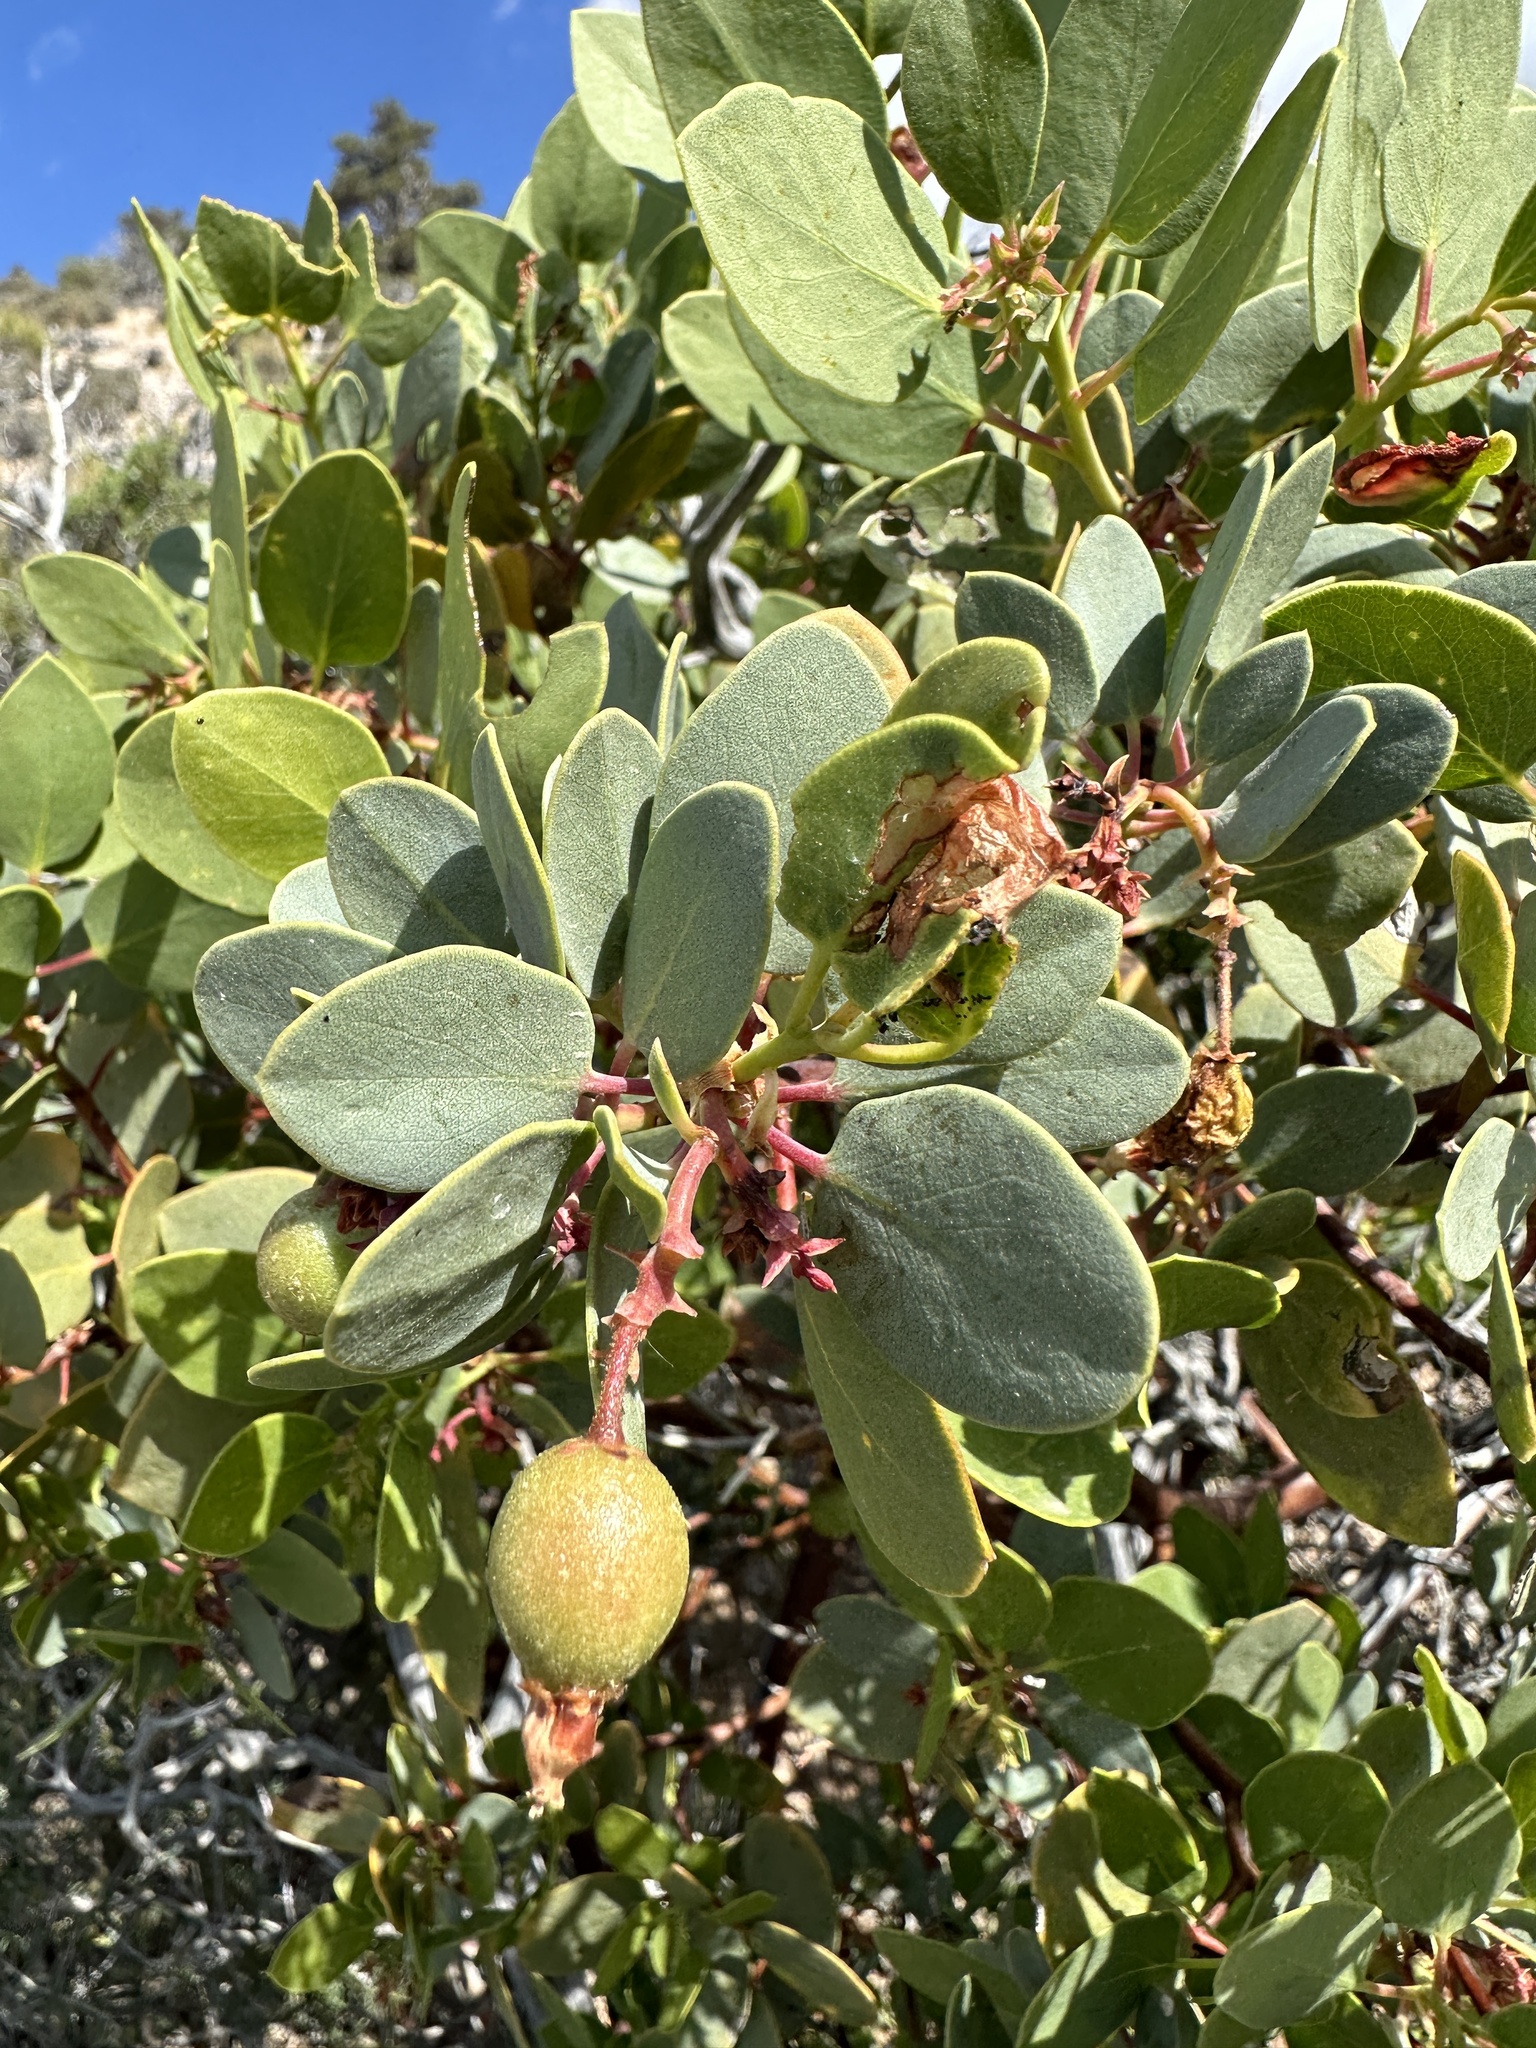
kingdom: Plantae
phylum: Tracheophyta
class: Magnoliopsida
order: Ericales
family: Ericaceae
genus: Arctostaphylos
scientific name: Arctostaphylos glauca
